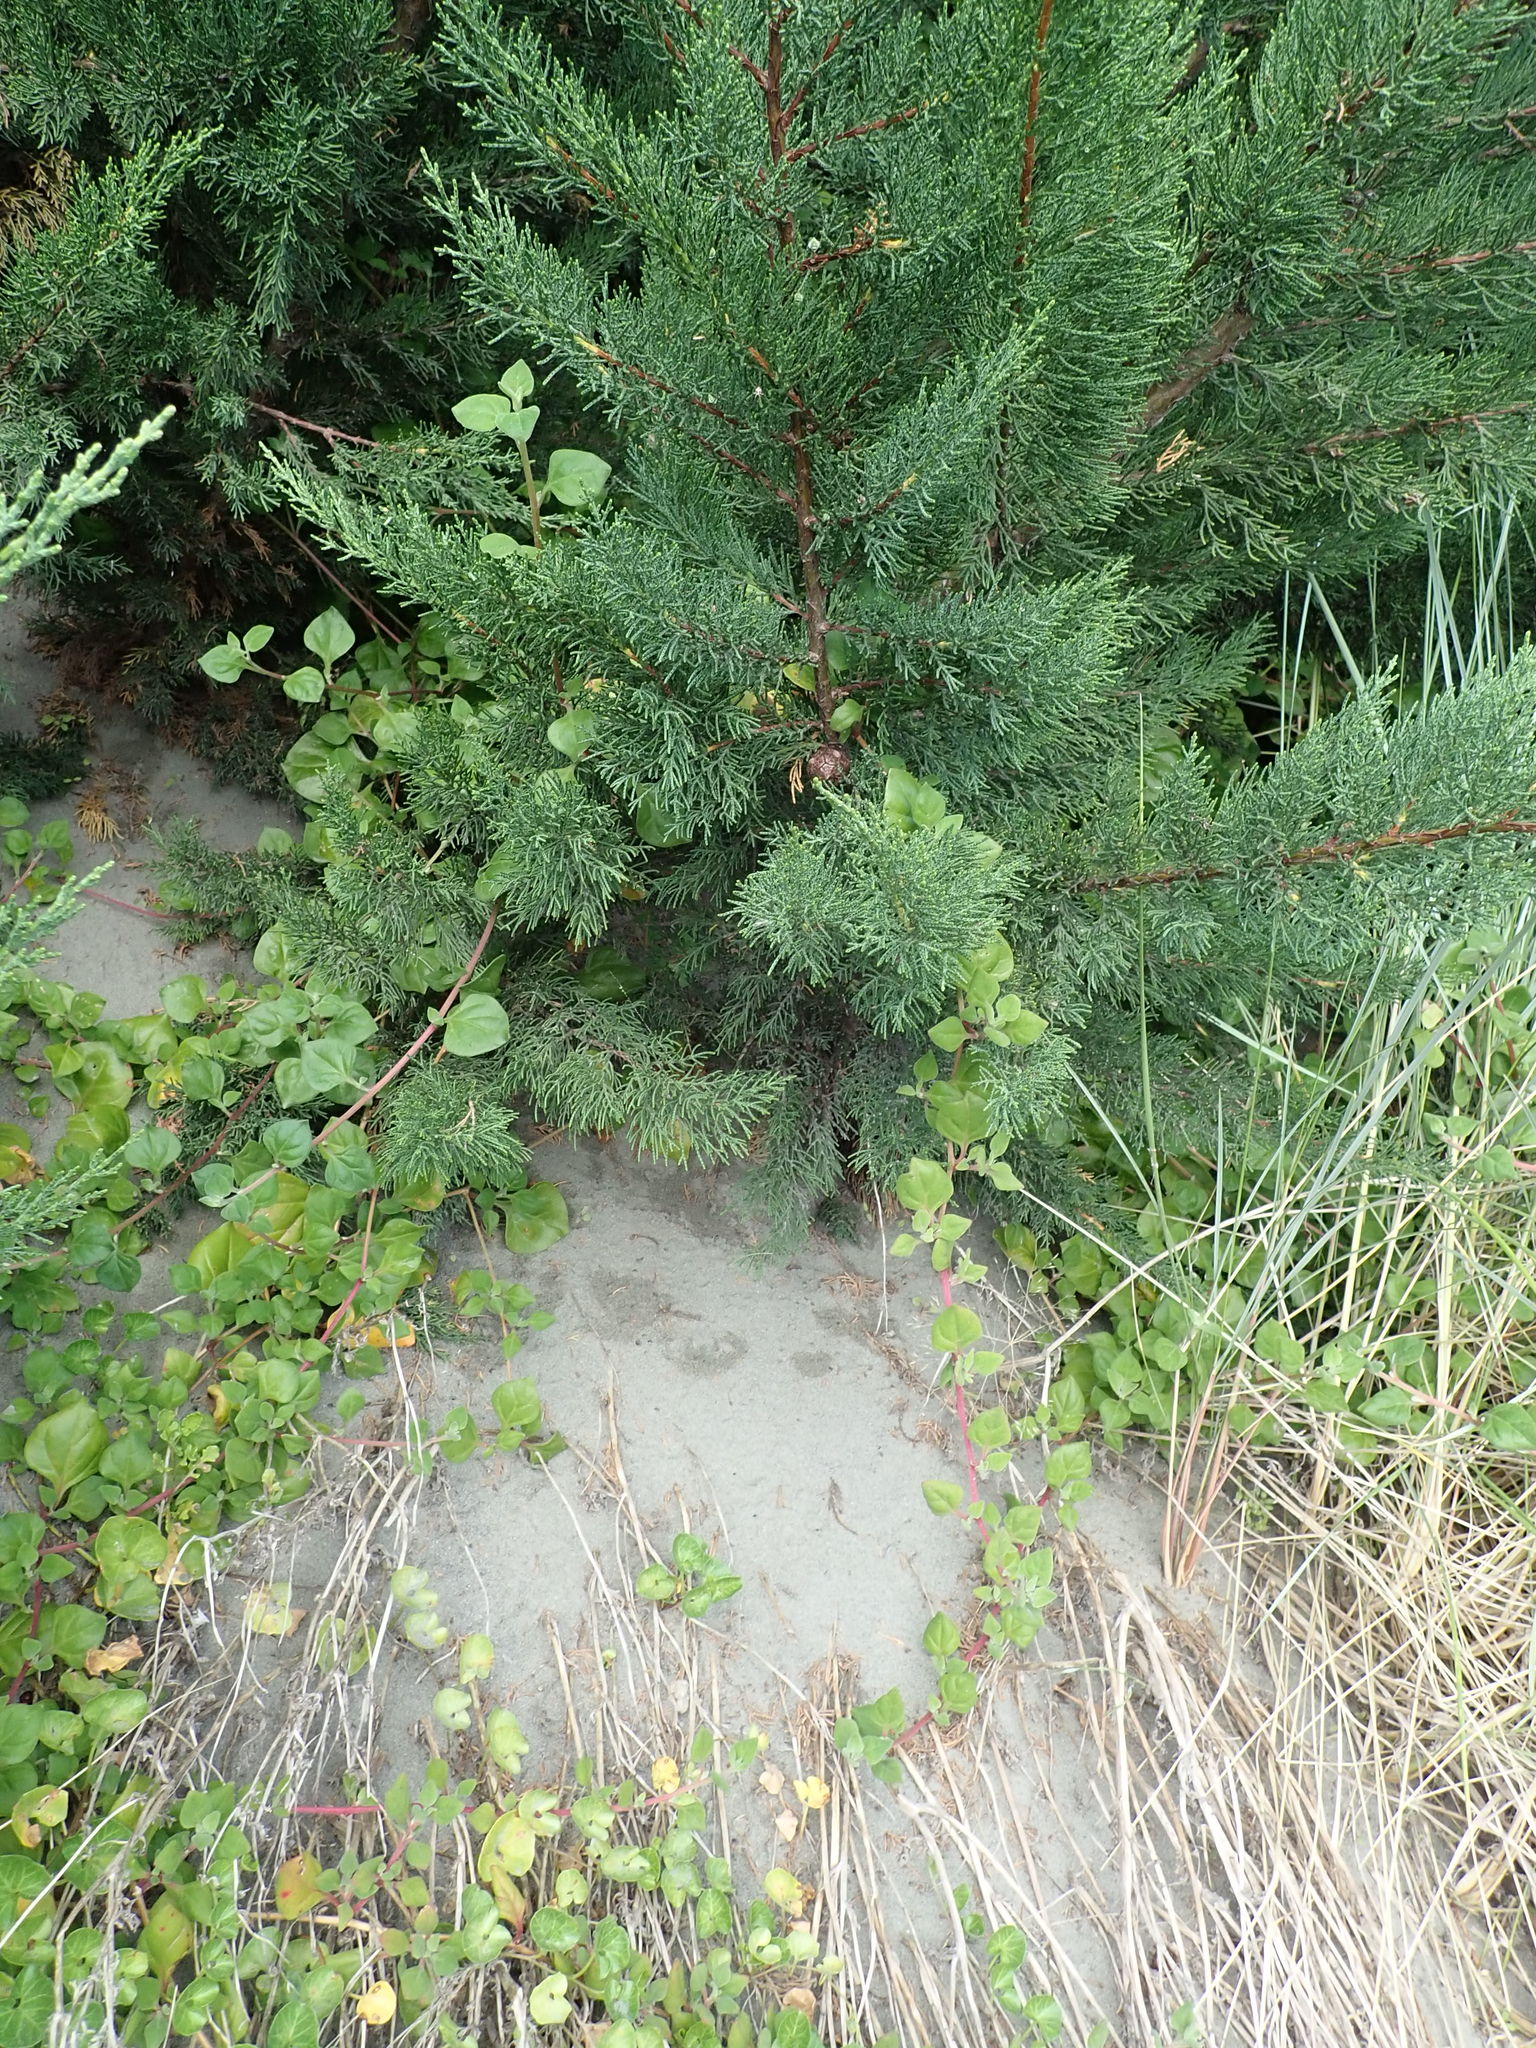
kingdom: Plantae
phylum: Tracheophyta
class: Magnoliopsida
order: Caryophyllales
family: Aizoaceae
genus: Tetragonia
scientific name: Tetragonia implexicoma
